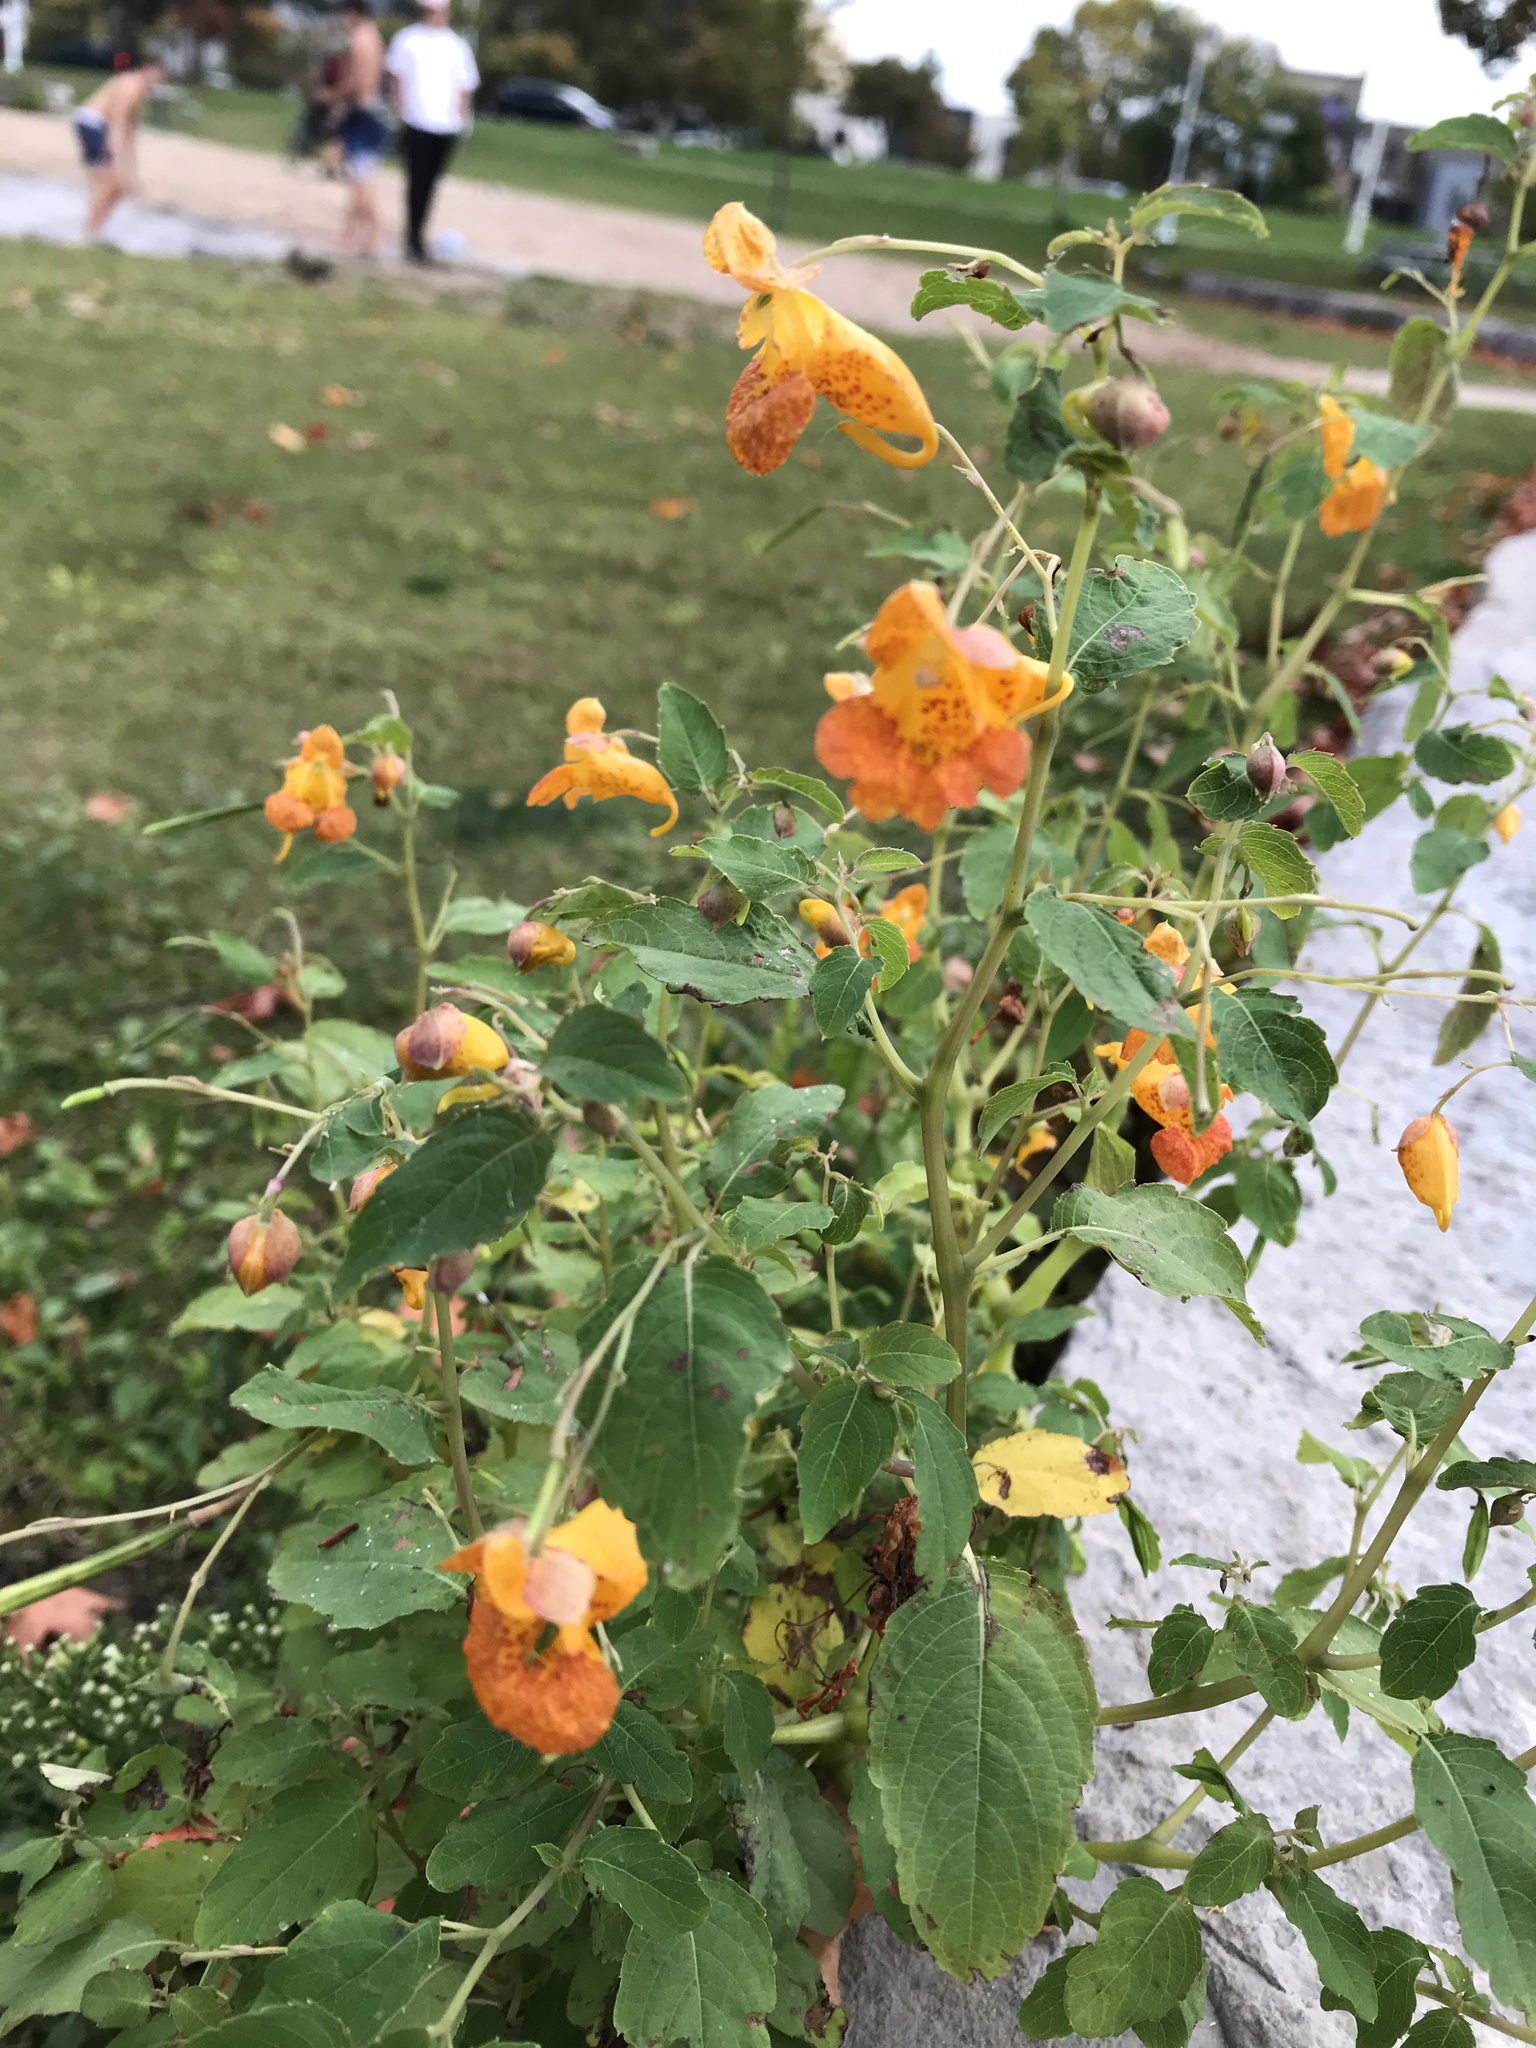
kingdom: Plantae
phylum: Tracheophyta
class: Magnoliopsida
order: Ericales
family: Balsaminaceae
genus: Impatiens
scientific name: Impatiens capensis
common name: Orange balsam
